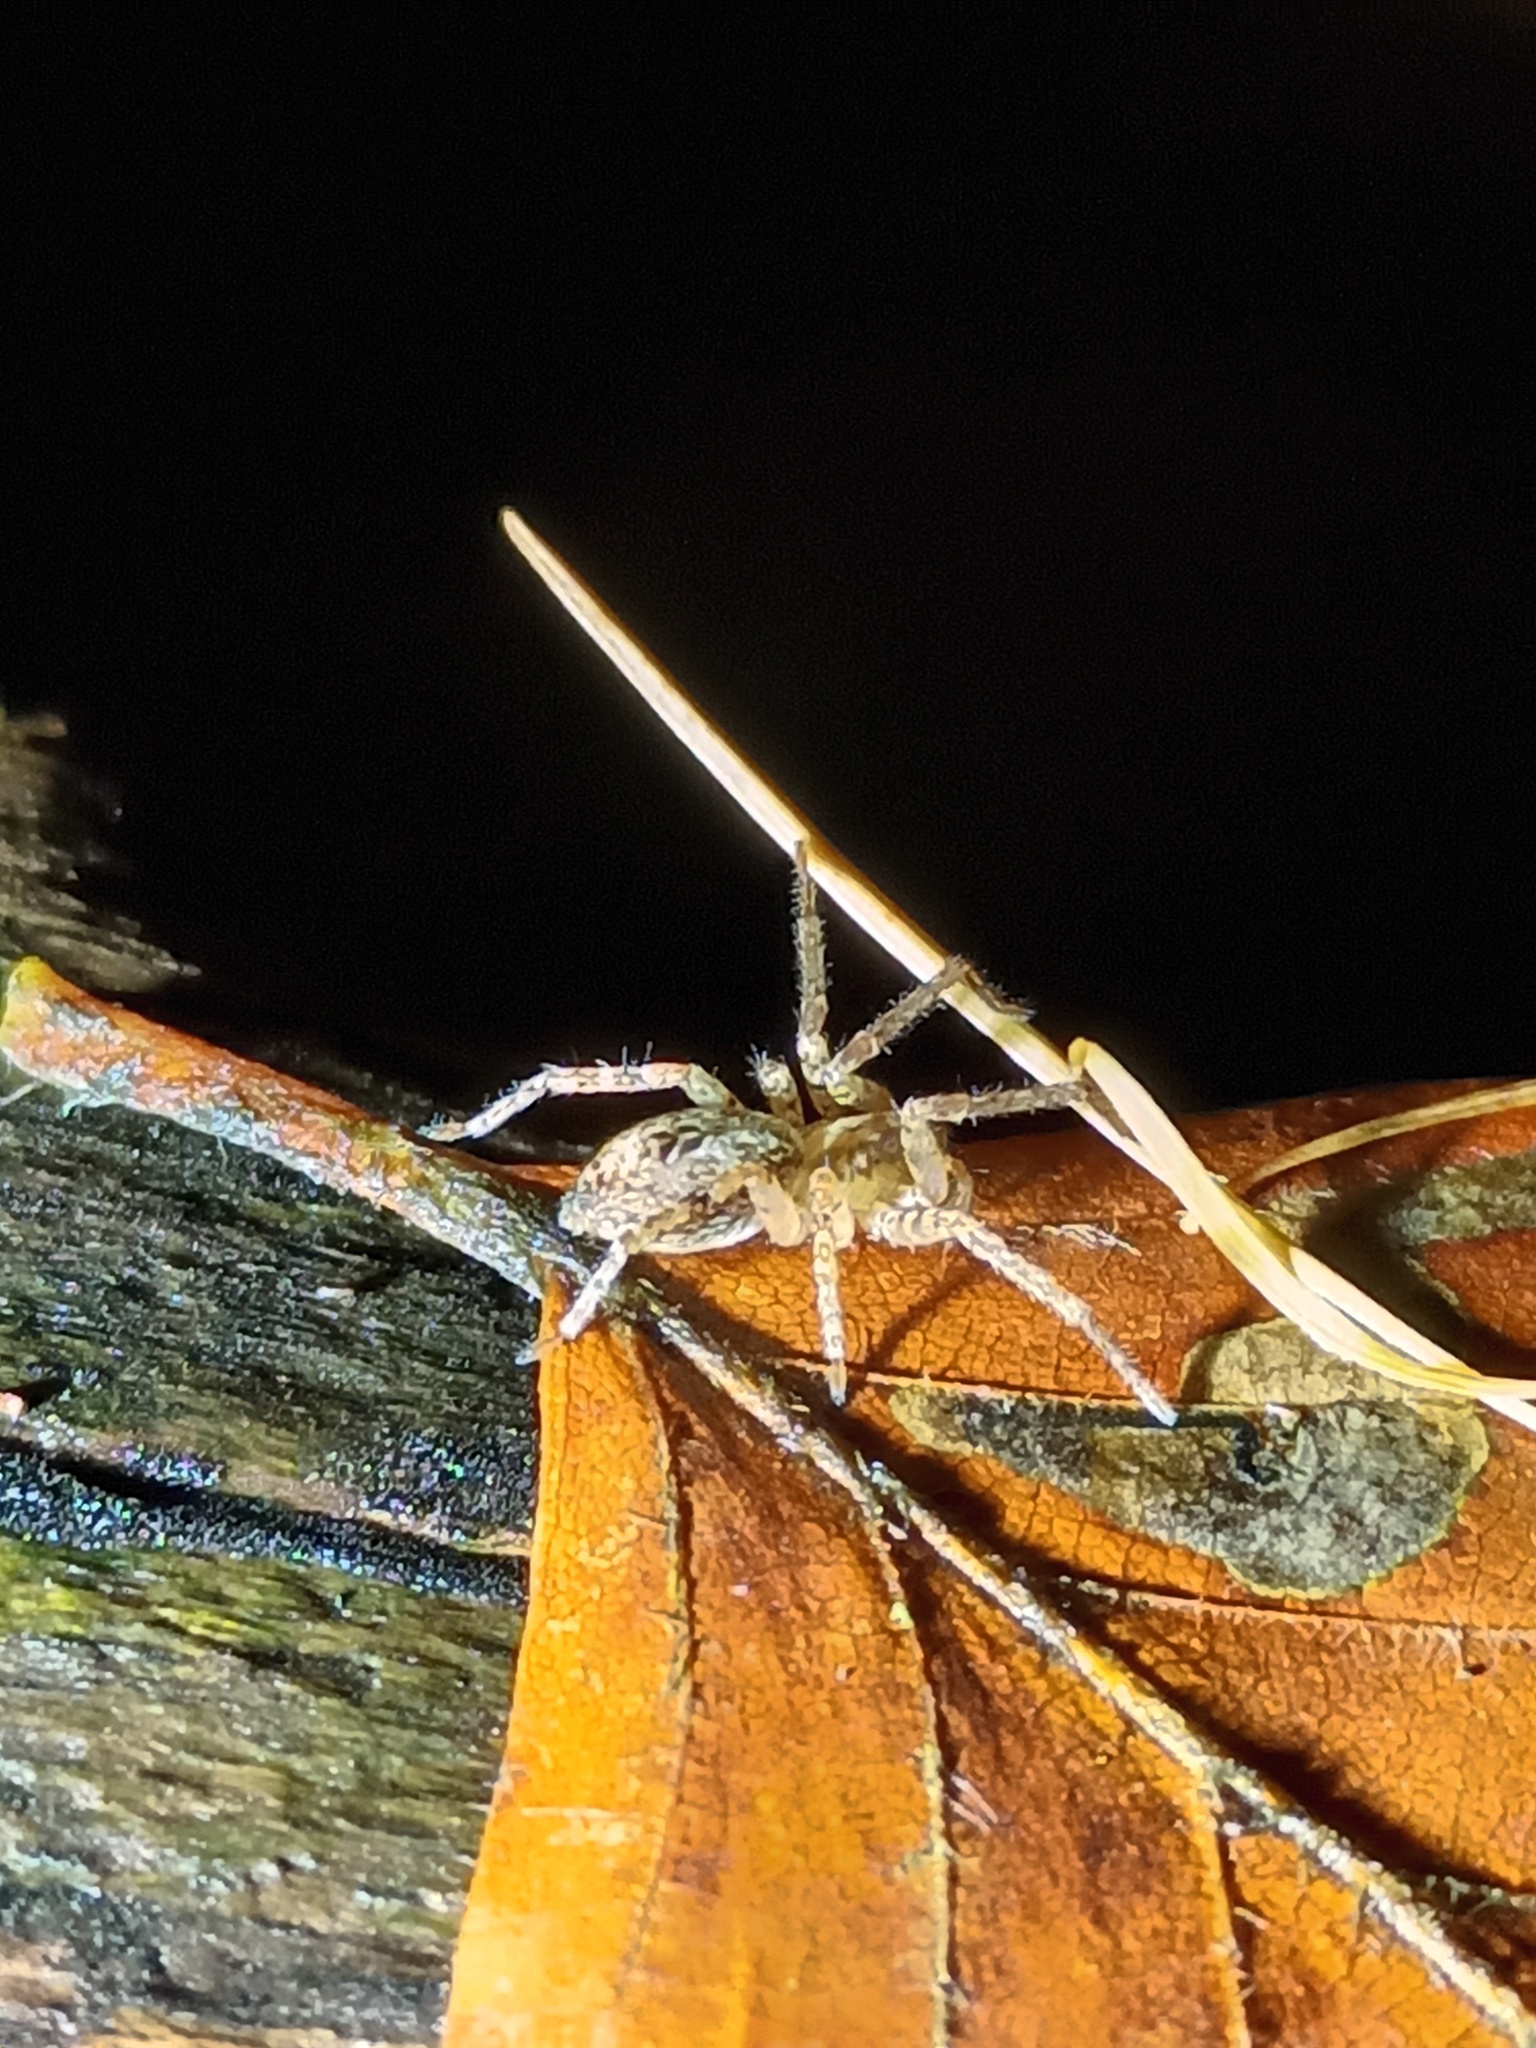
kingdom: Animalia
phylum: Arthropoda
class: Arachnida
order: Araneae
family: Anyphaenidae
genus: Anyphaena
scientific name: Anyphaena accentuata
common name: Buzzing spider
